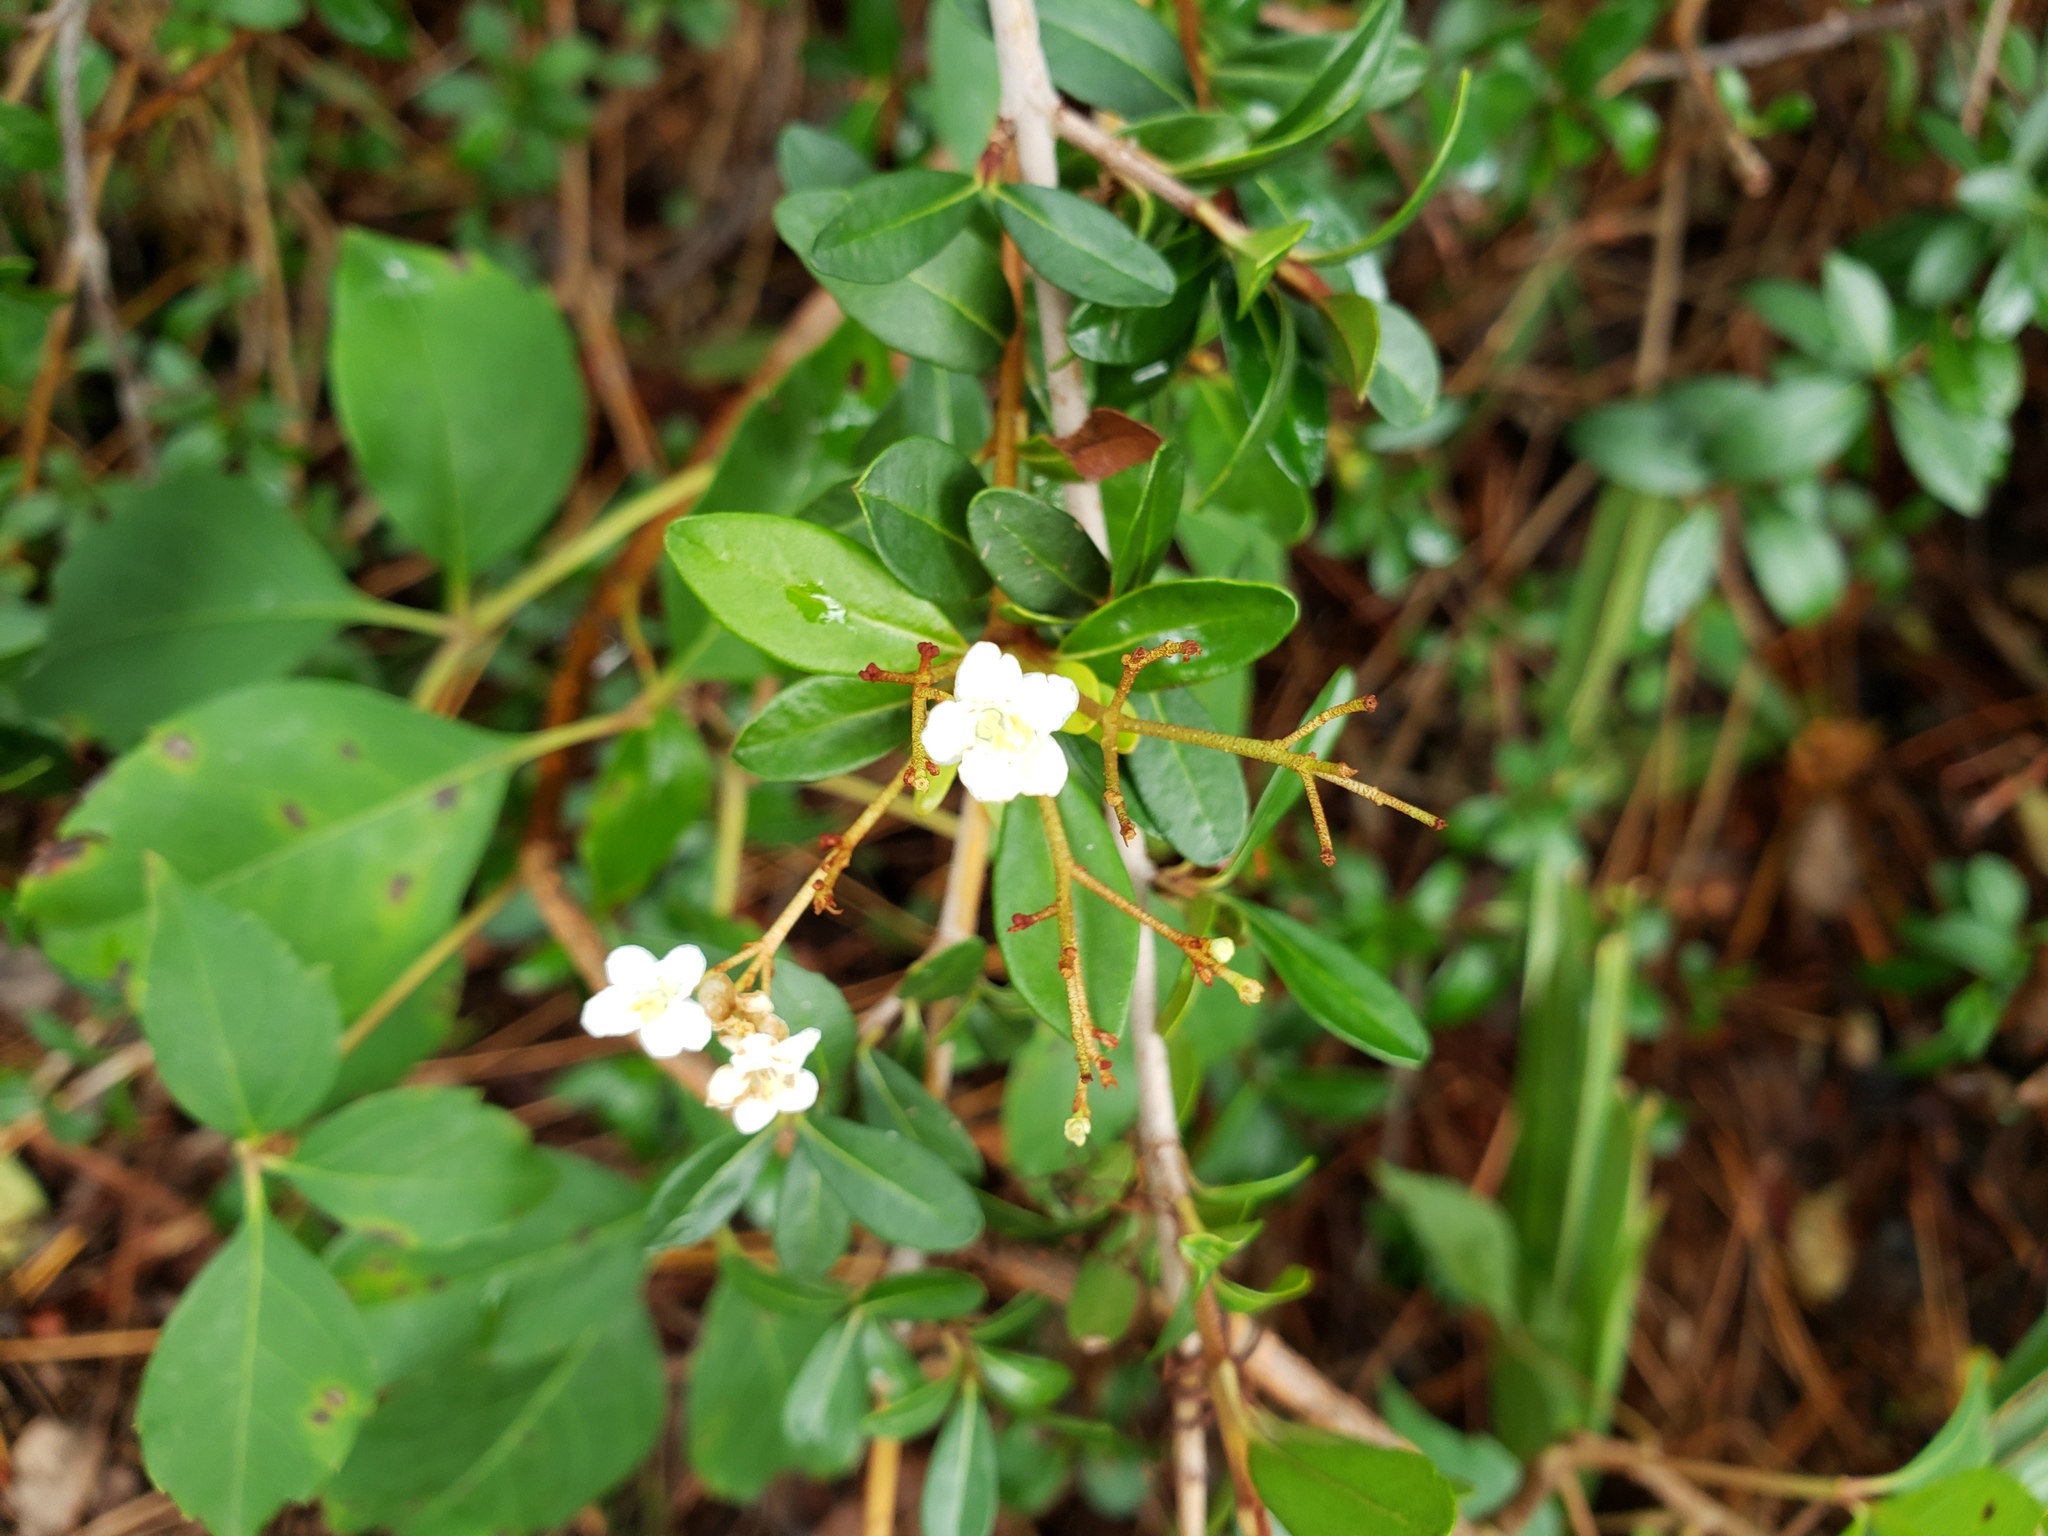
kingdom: Plantae
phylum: Tracheophyta
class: Magnoliopsida
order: Dipsacales
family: Viburnaceae
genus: Viburnum
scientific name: Viburnum obovatum
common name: Walter's viburnum
